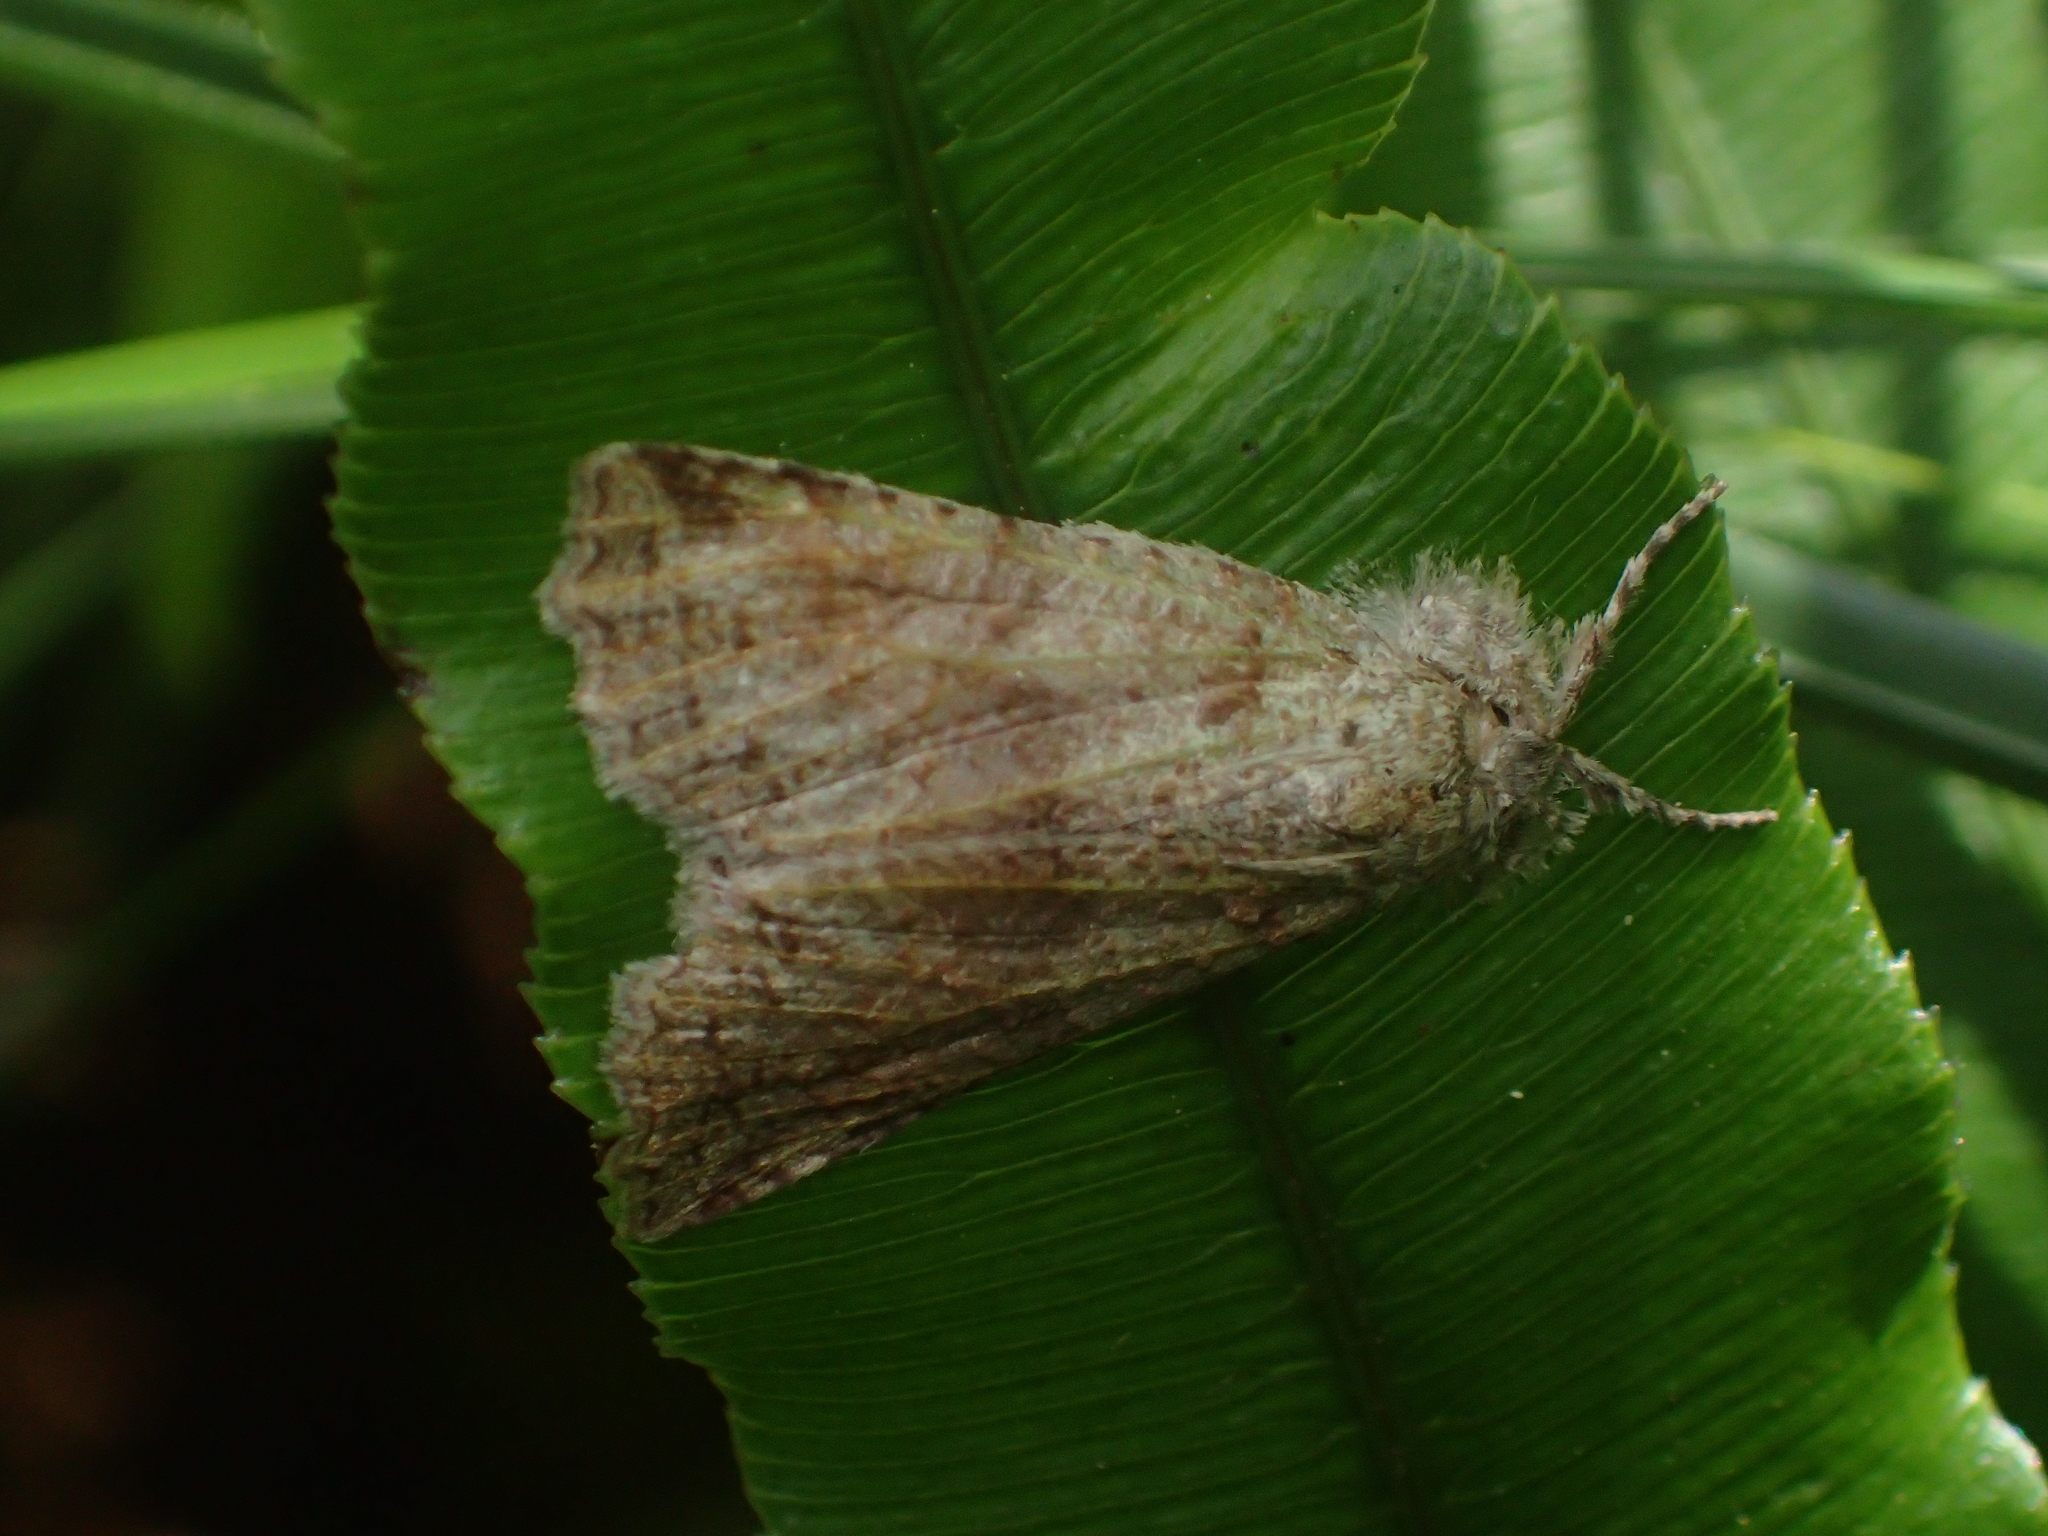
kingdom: Animalia
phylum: Arthropoda
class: Insecta
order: Lepidoptera
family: Geometridae
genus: Declana
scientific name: Declana floccosa
